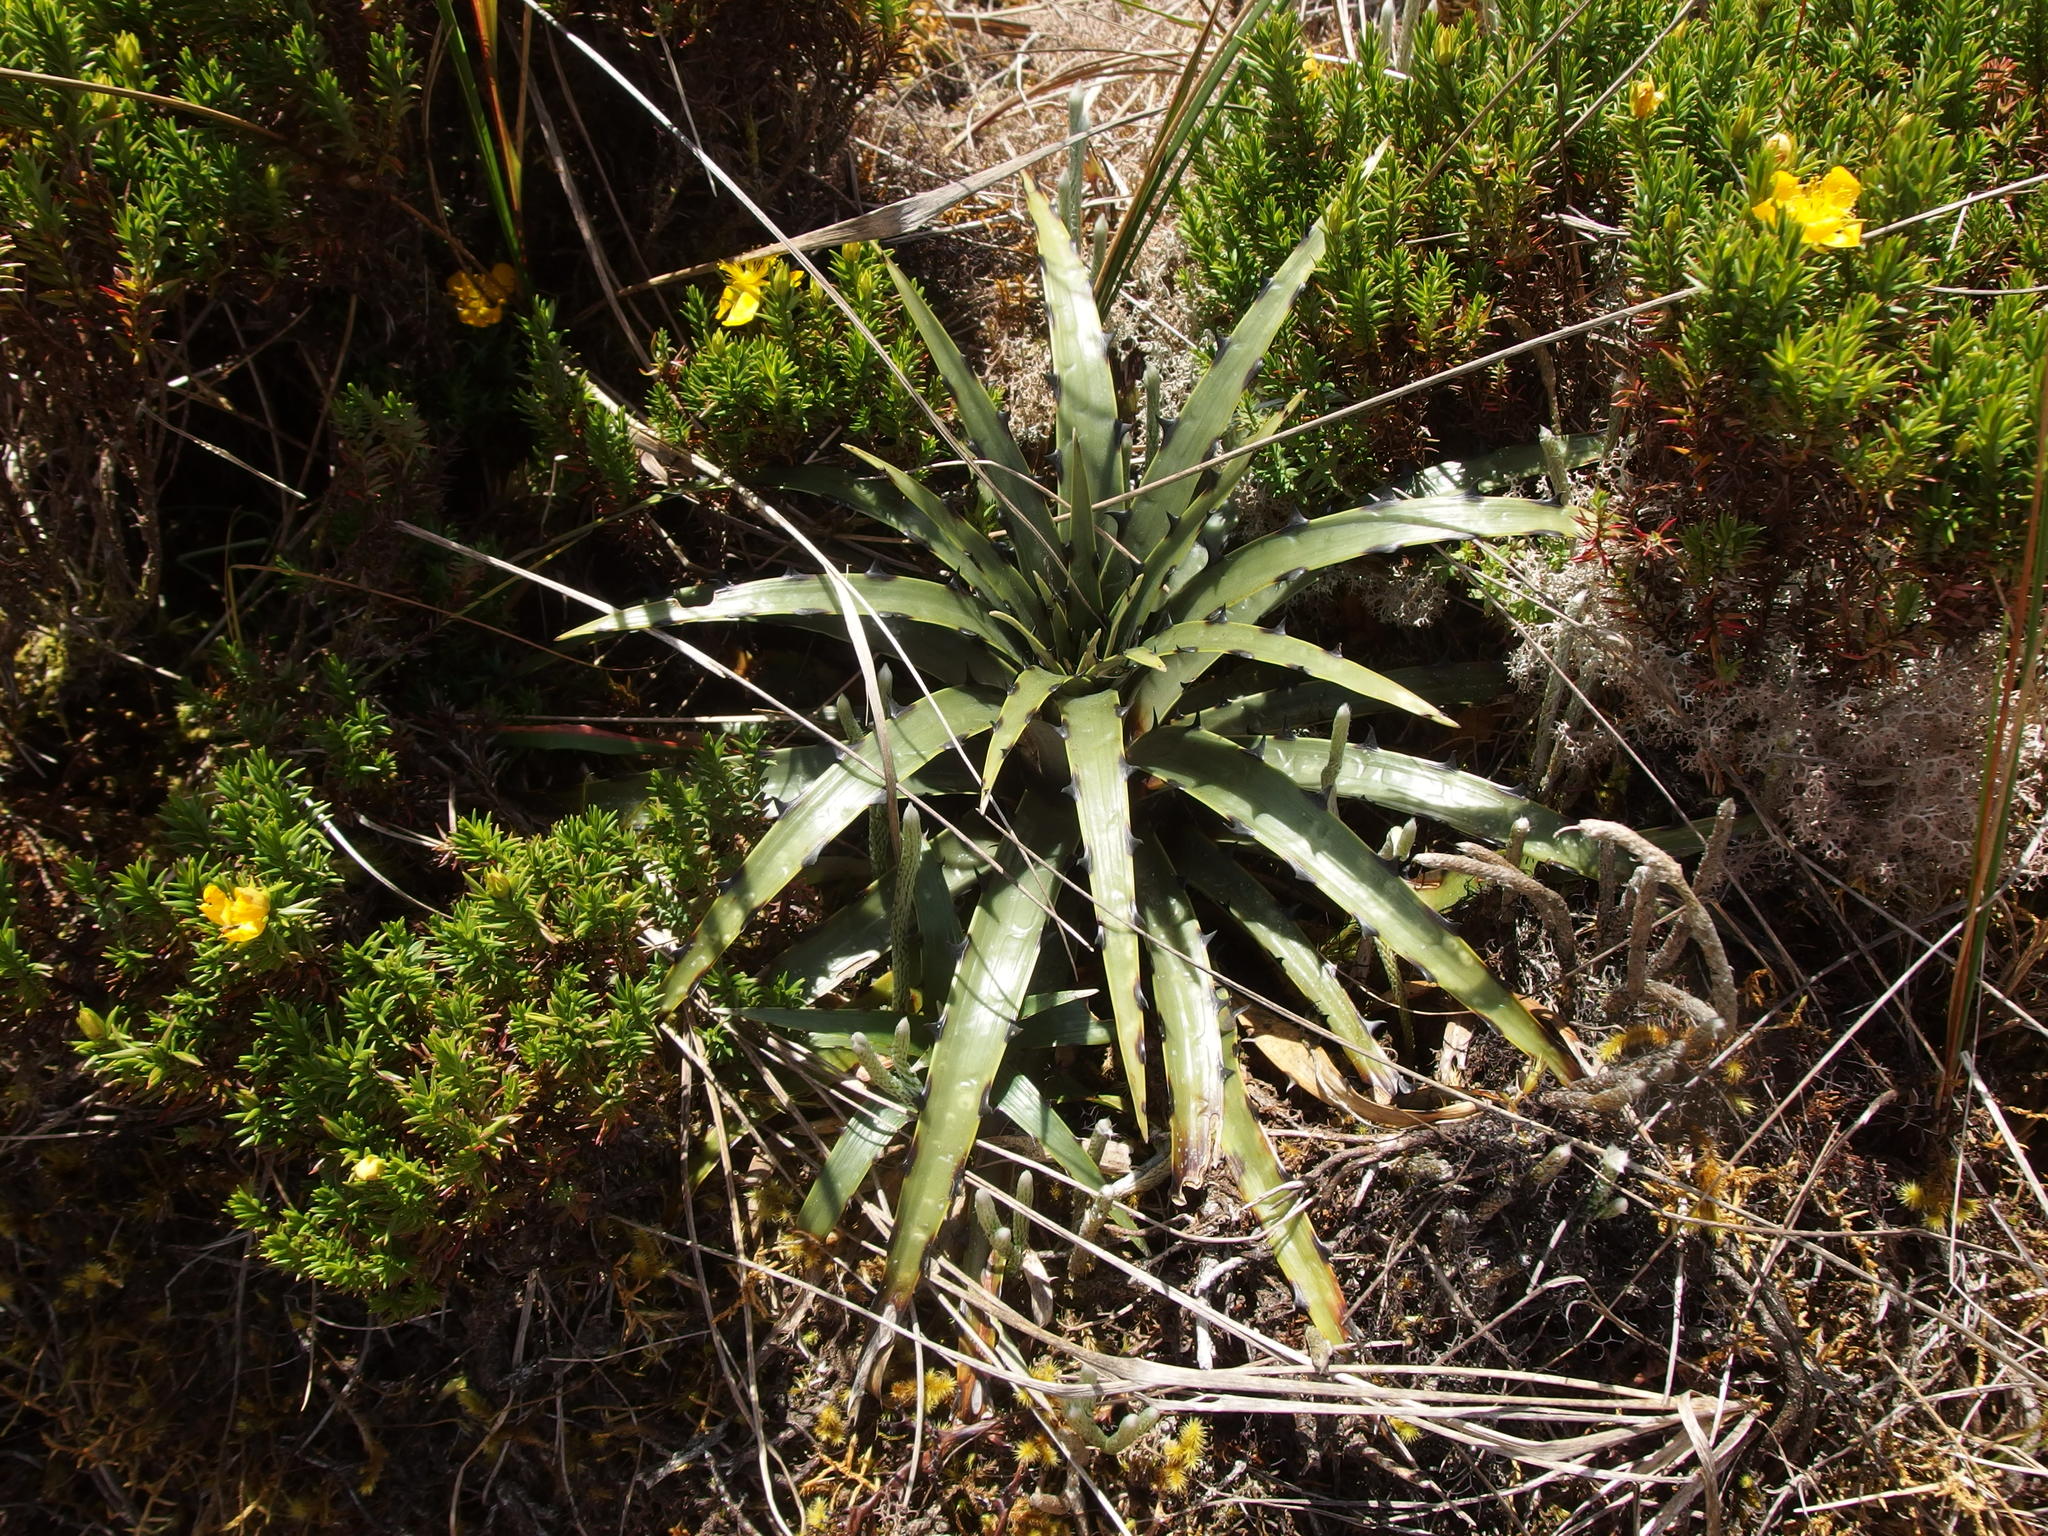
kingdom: Plantae
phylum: Tracheophyta
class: Liliopsida
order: Poales
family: Bromeliaceae
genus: Puya
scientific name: Puya cuevae
